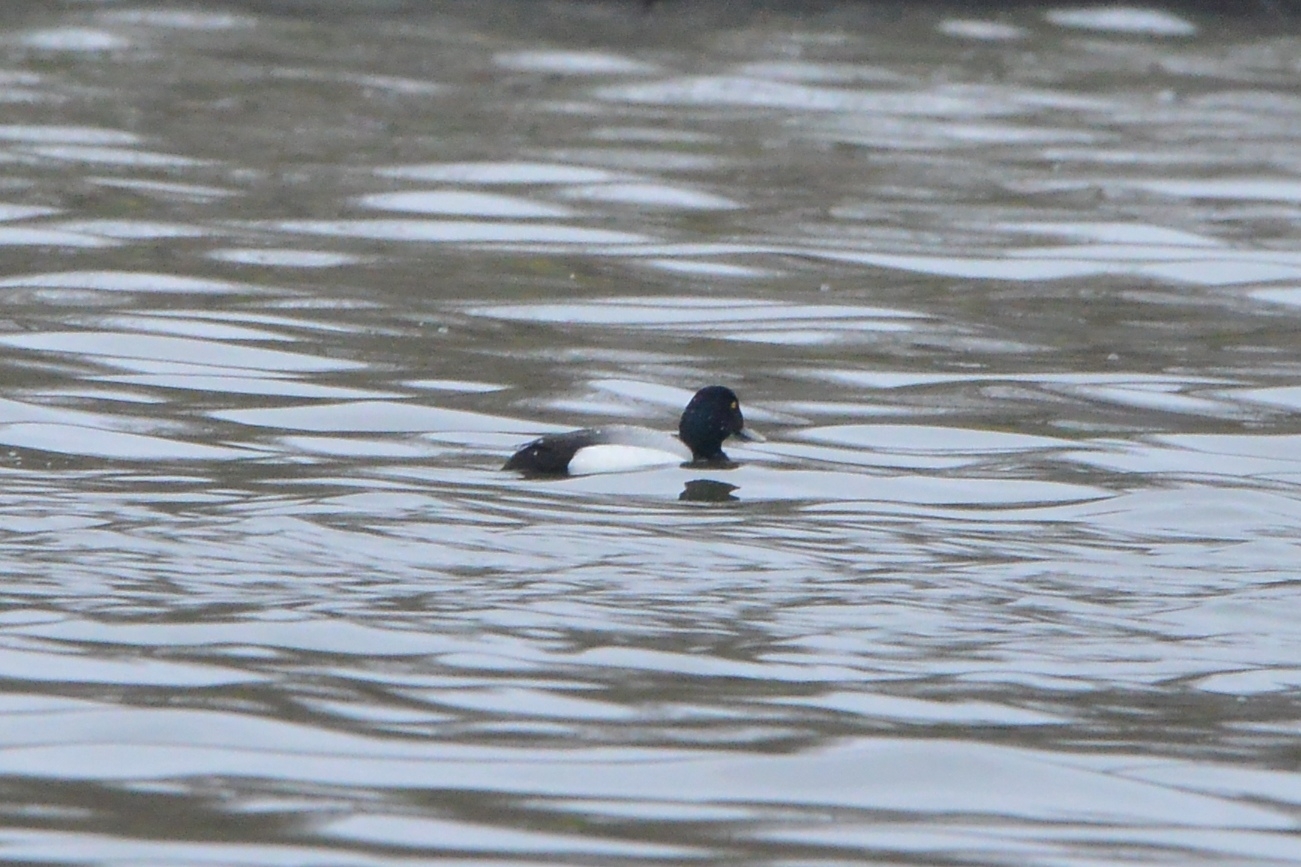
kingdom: Animalia
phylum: Chordata
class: Aves
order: Anseriformes
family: Anatidae
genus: Aythya
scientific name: Aythya marila
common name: Greater scaup
